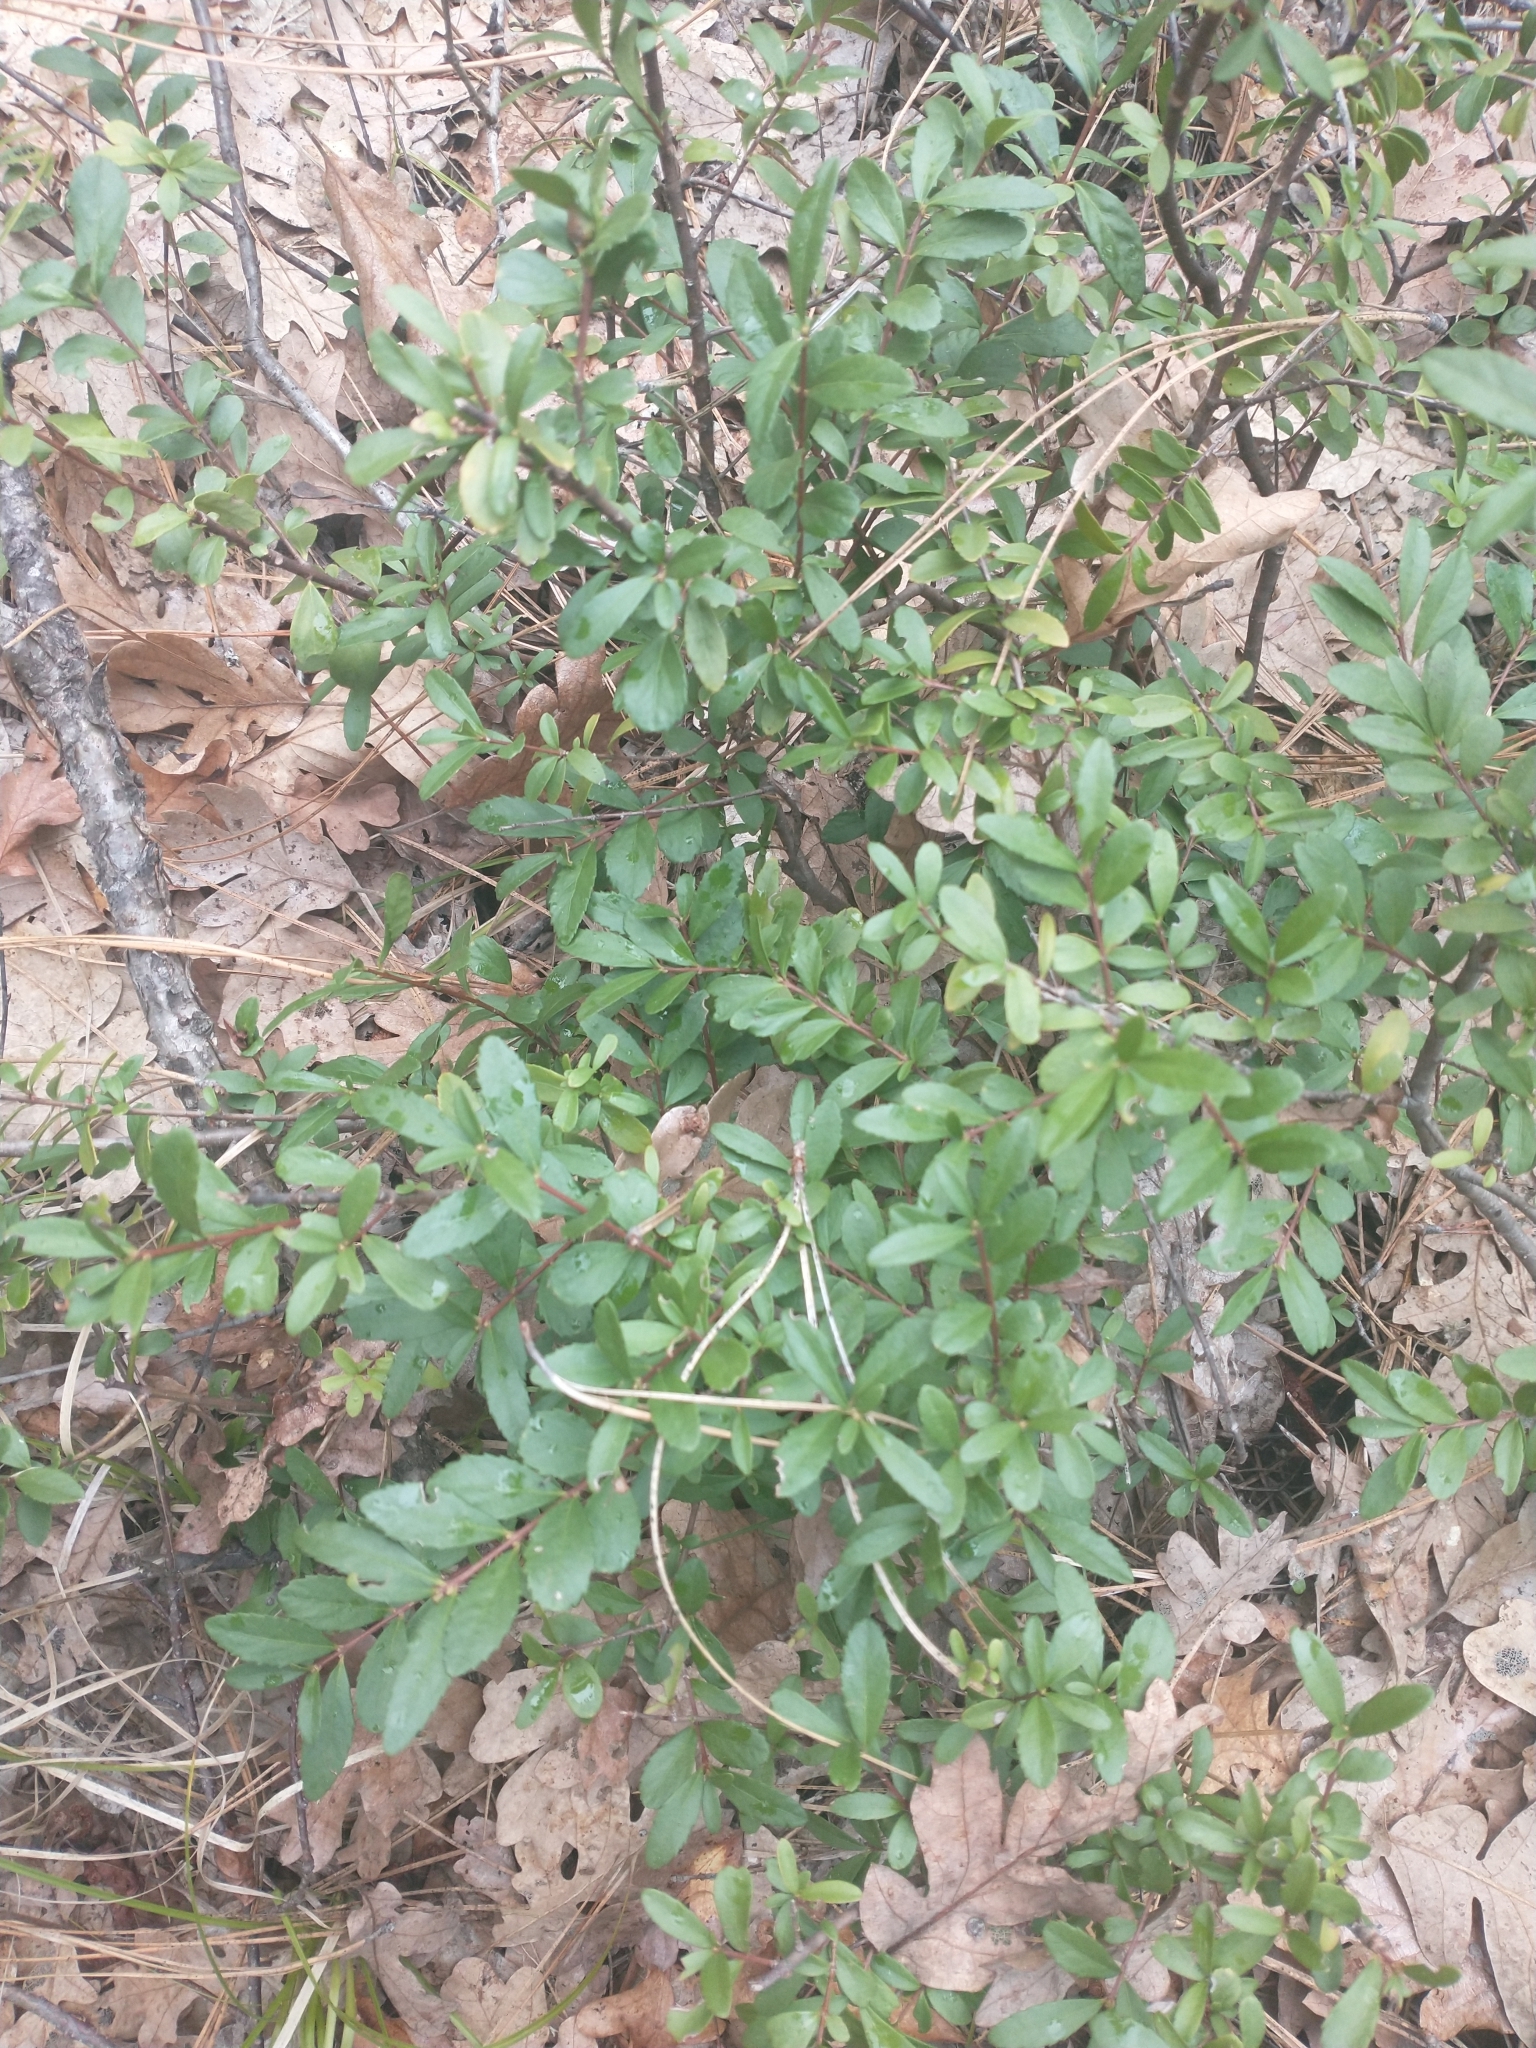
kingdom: Plantae
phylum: Tracheophyta
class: Magnoliopsida
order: Celastrales
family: Celastraceae
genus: Paxistima
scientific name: Paxistima myrsinites
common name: Mountain-lover
